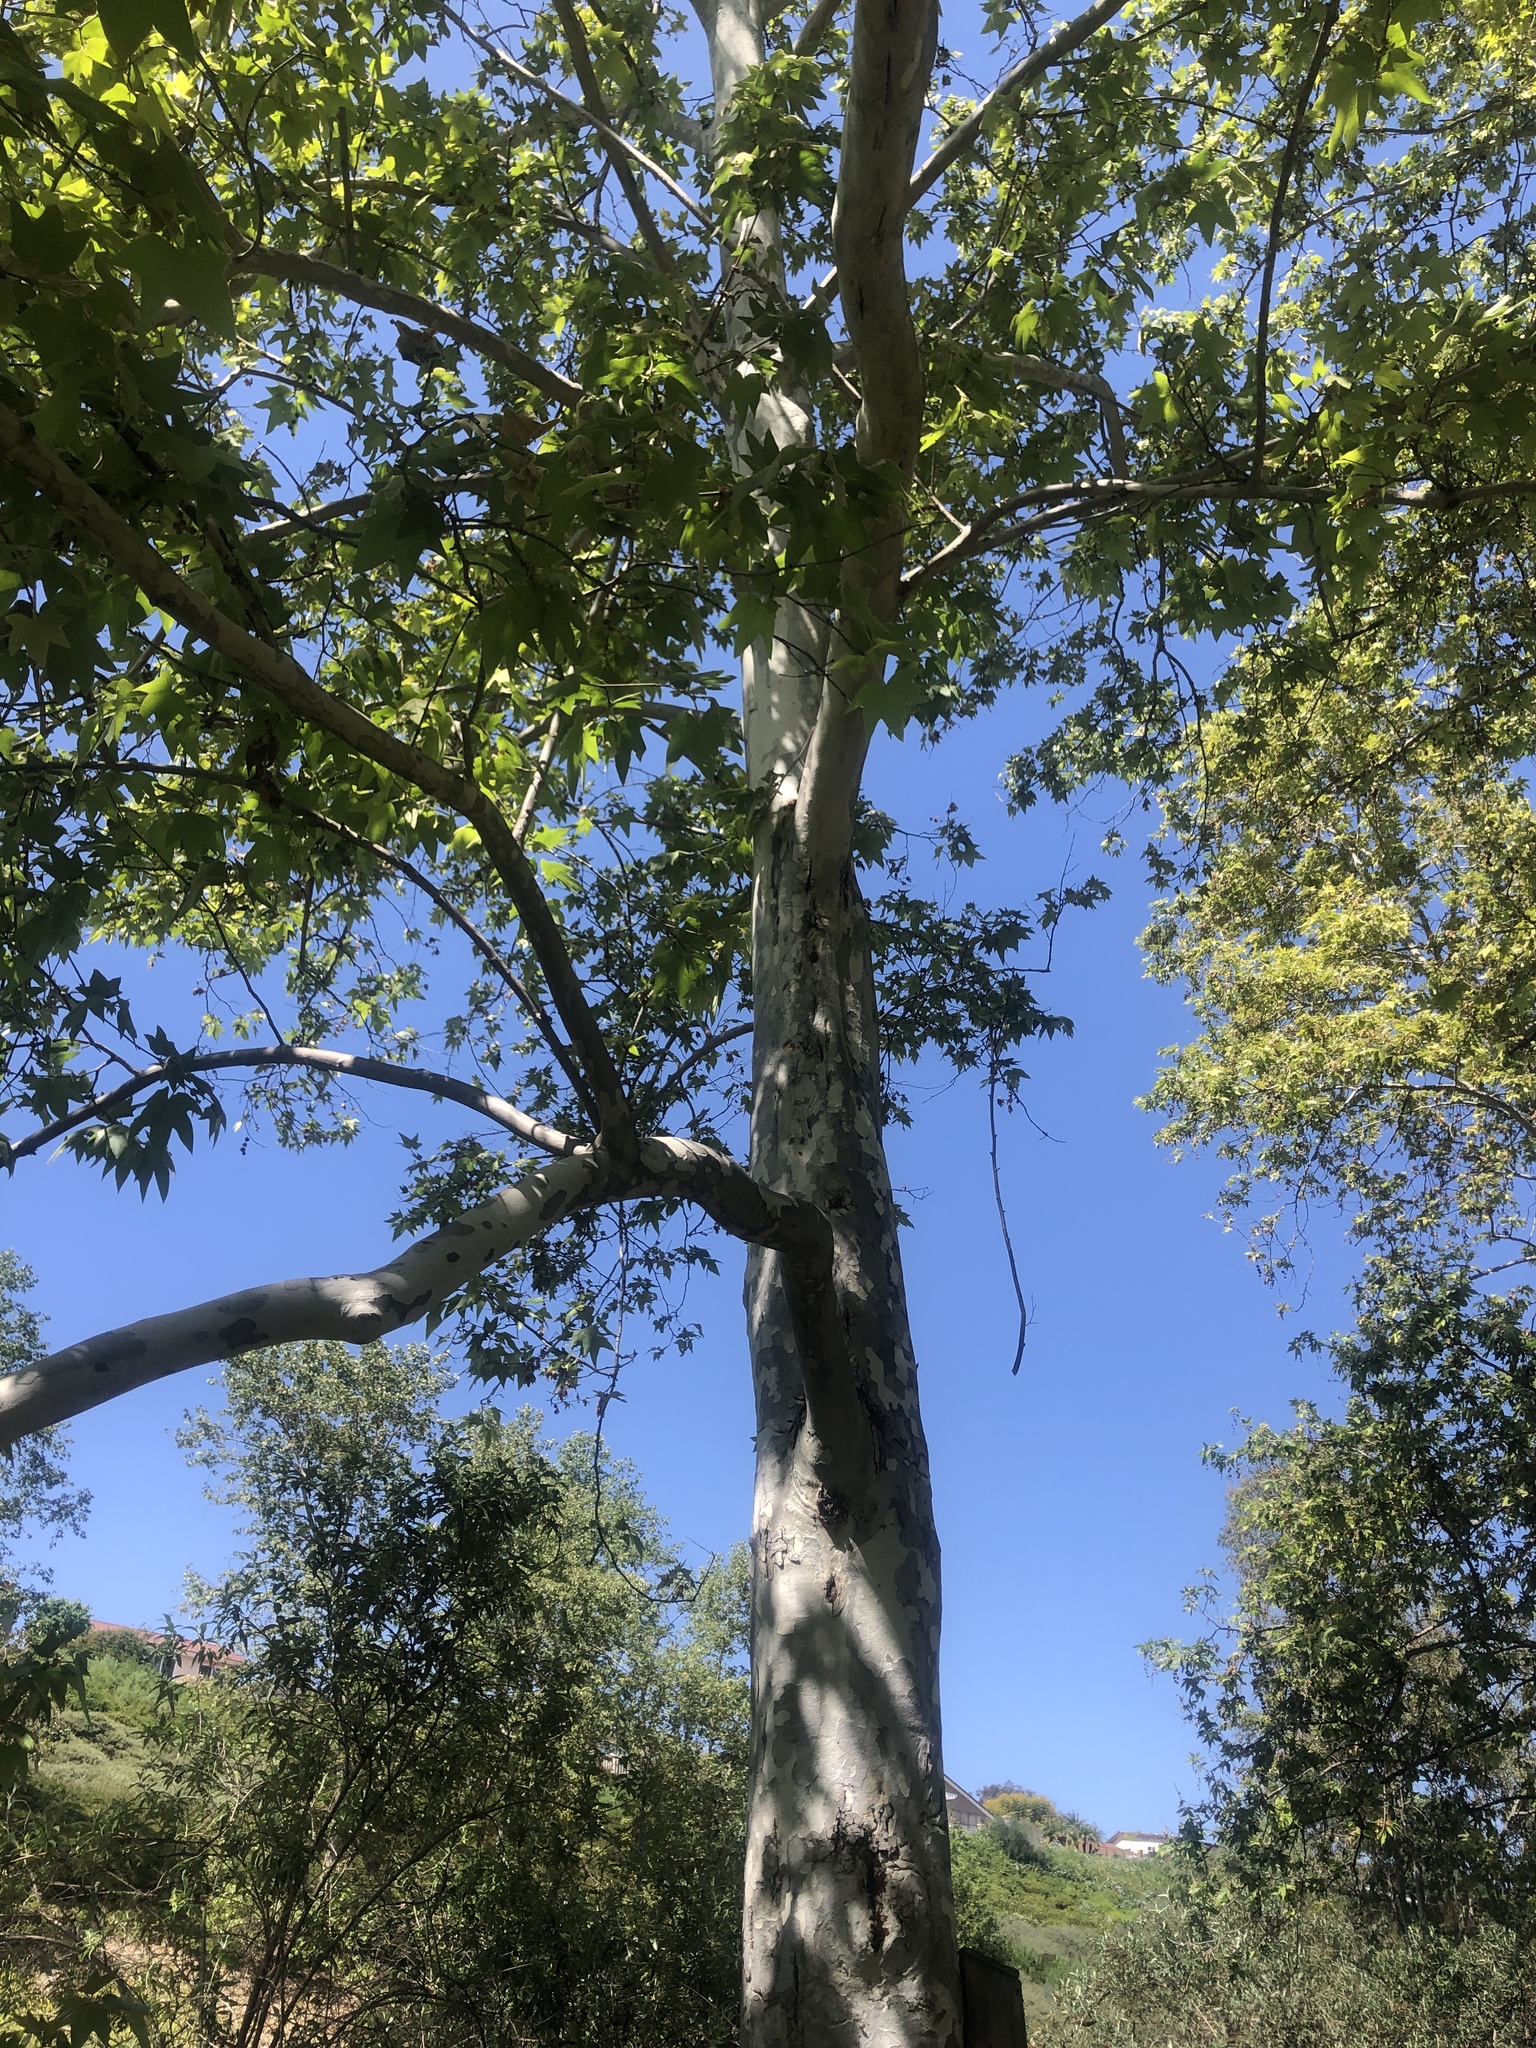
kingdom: Plantae
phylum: Tracheophyta
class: Magnoliopsida
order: Proteales
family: Platanaceae
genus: Platanus
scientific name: Platanus racemosa
